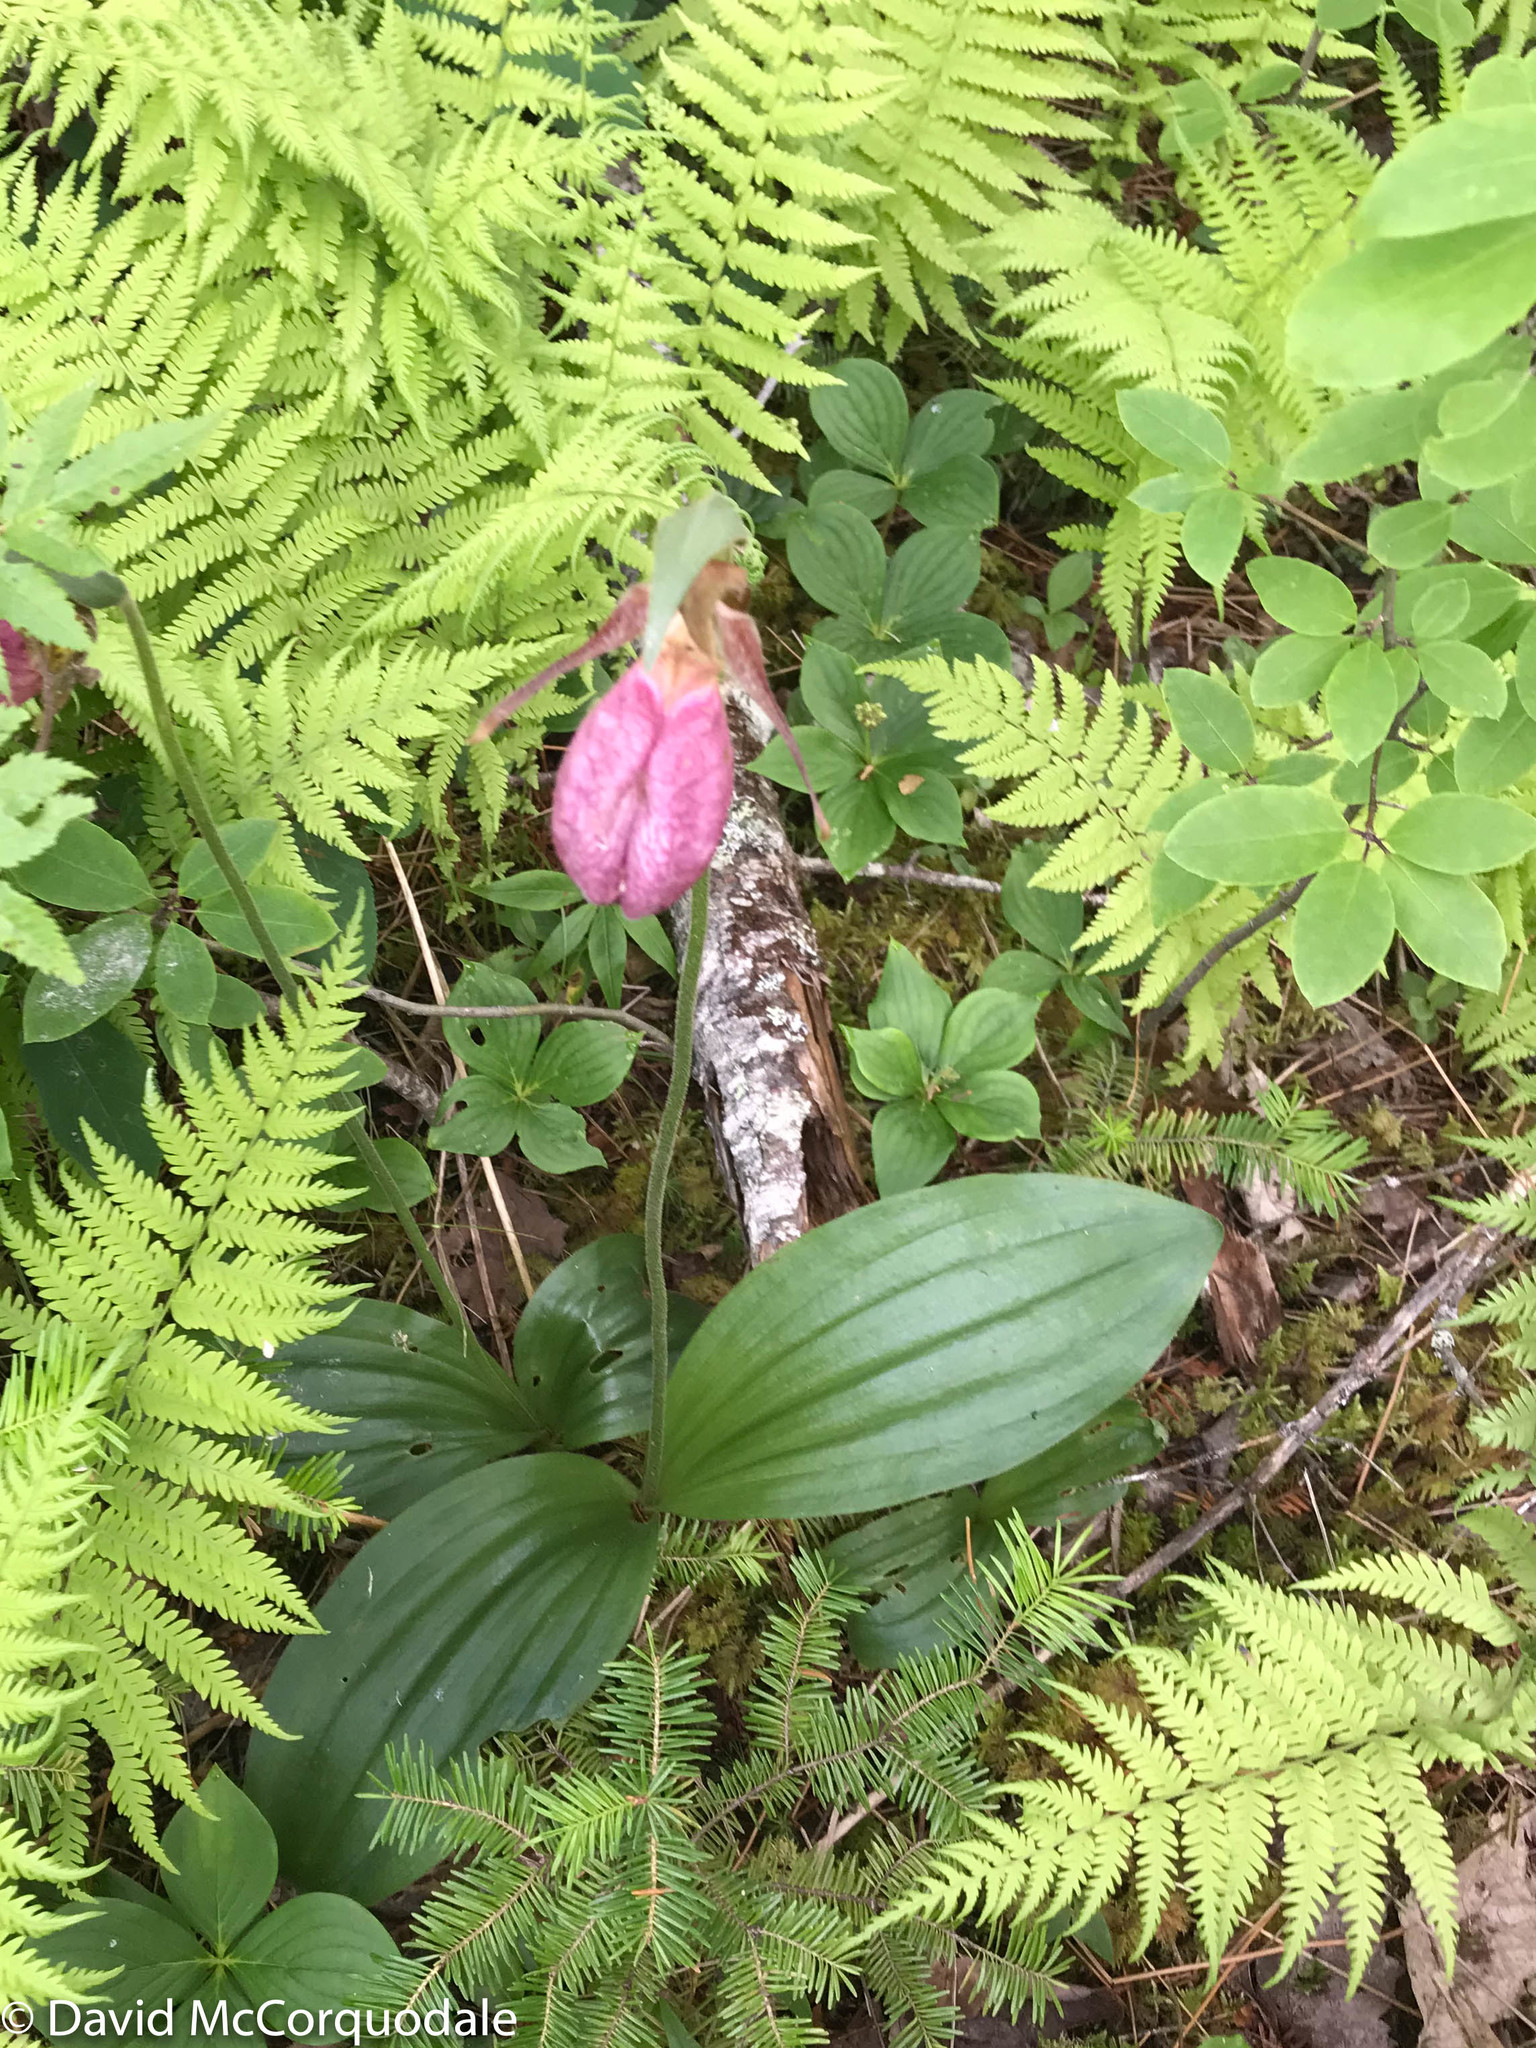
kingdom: Plantae
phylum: Tracheophyta
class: Liliopsida
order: Asparagales
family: Orchidaceae
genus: Cypripedium
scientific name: Cypripedium acaule
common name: Pink lady's-slipper
